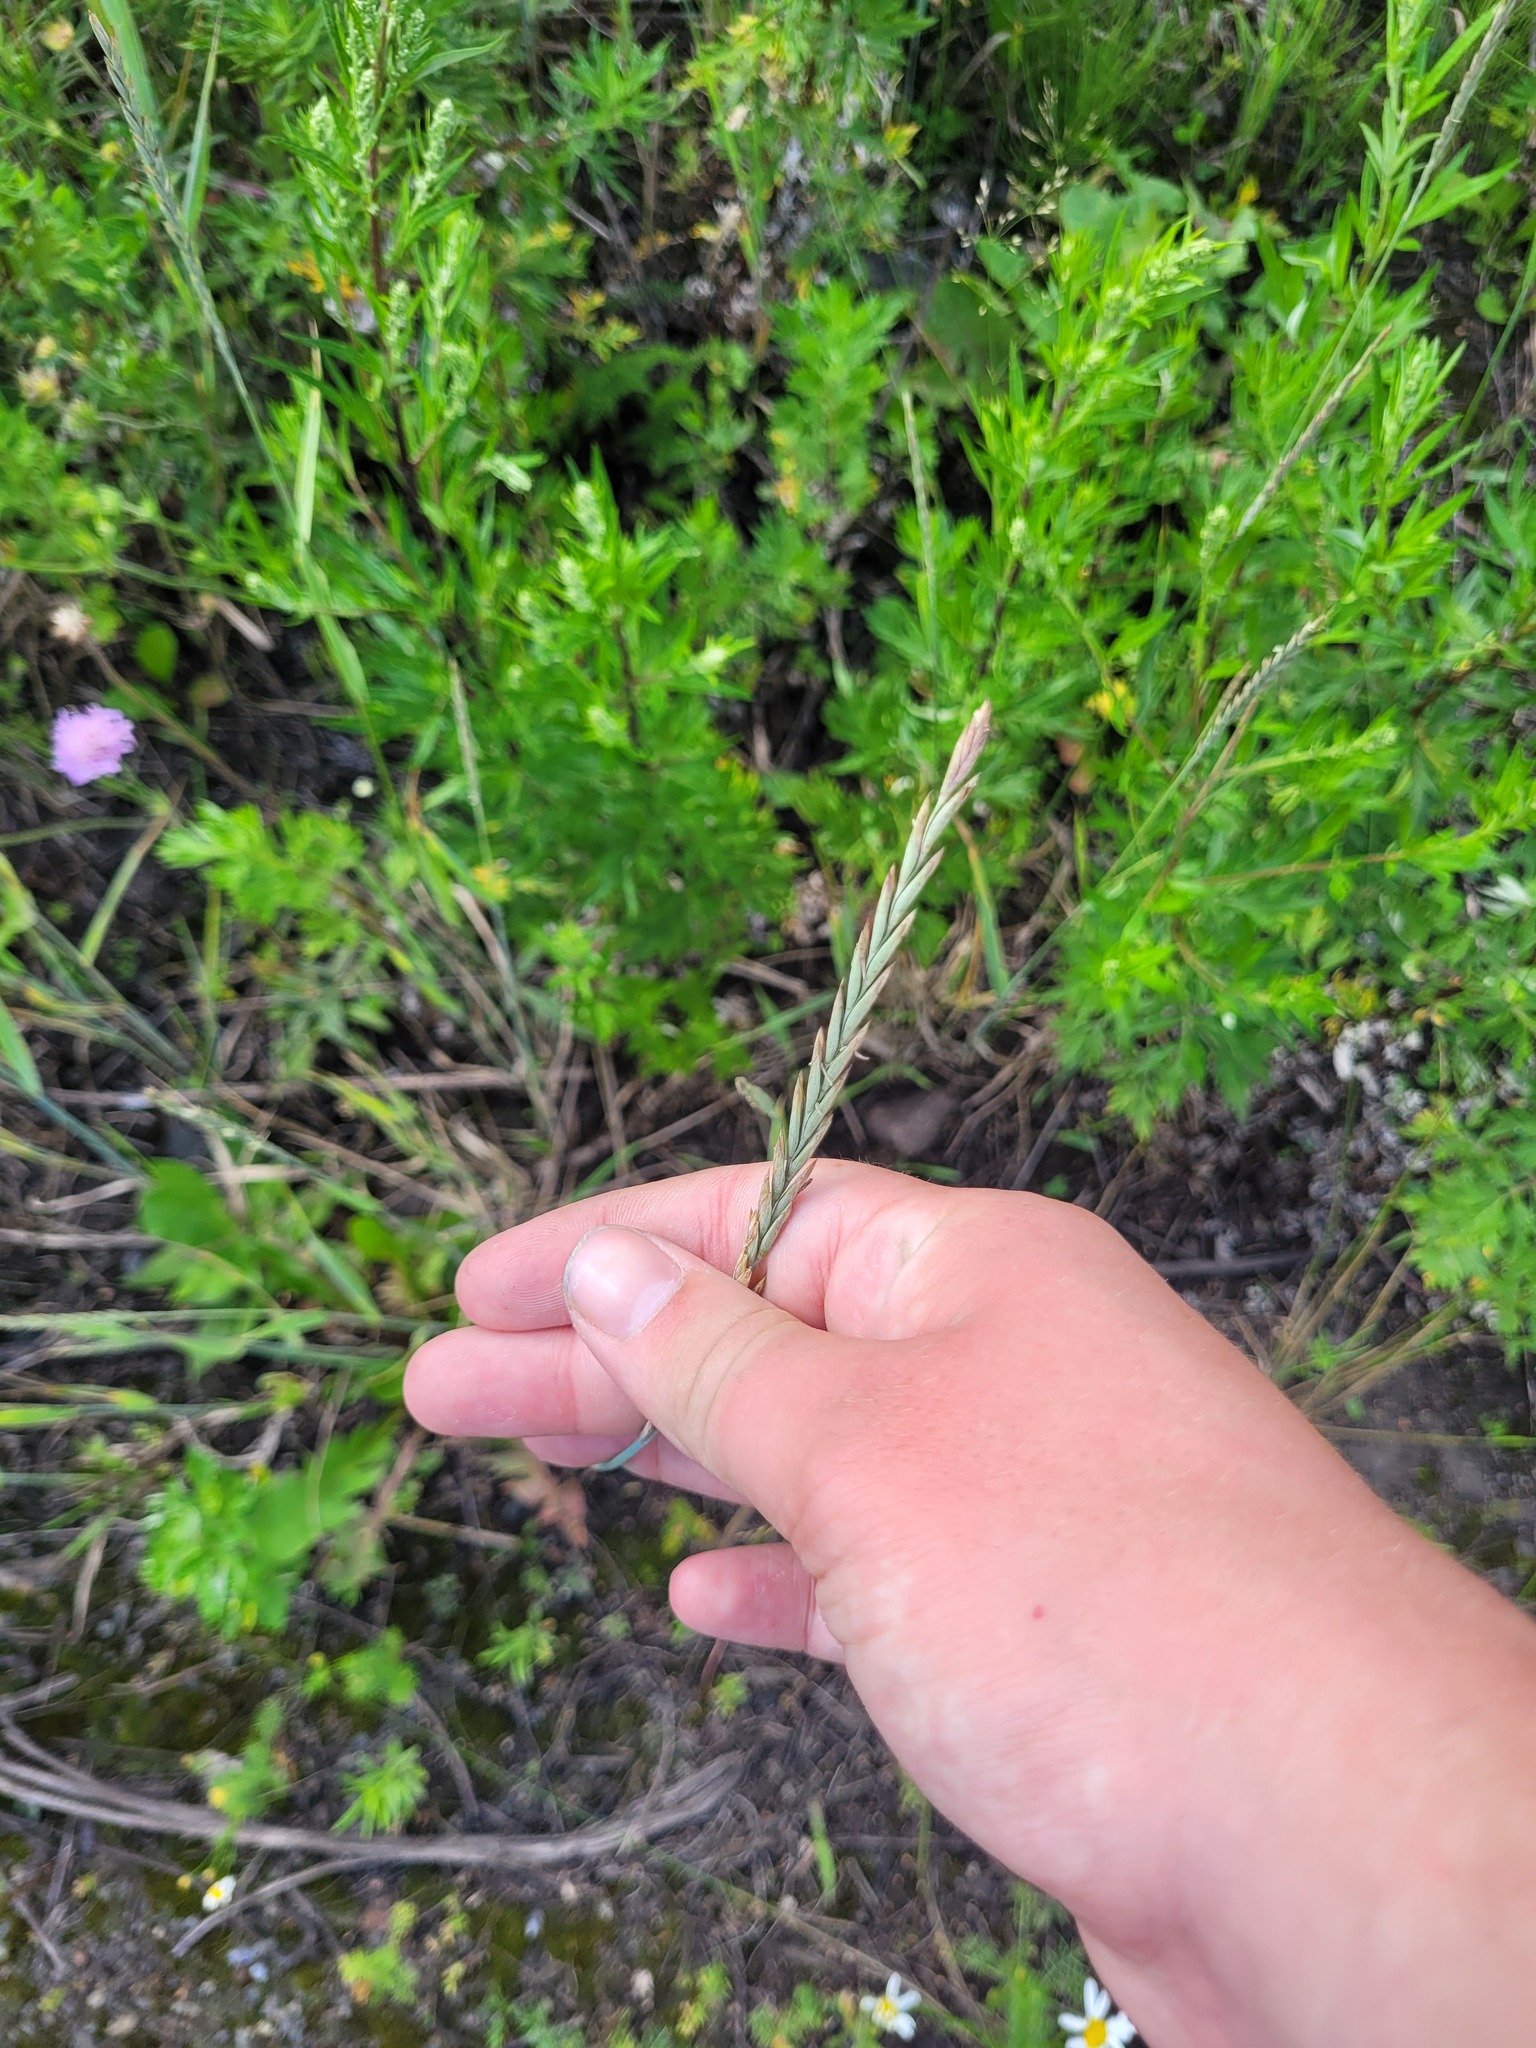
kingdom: Plantae
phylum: Tracheophyta
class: Liliopsida
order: Poales
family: Poaceae
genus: Elymus
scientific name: Elymus repens
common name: Quackgrass
